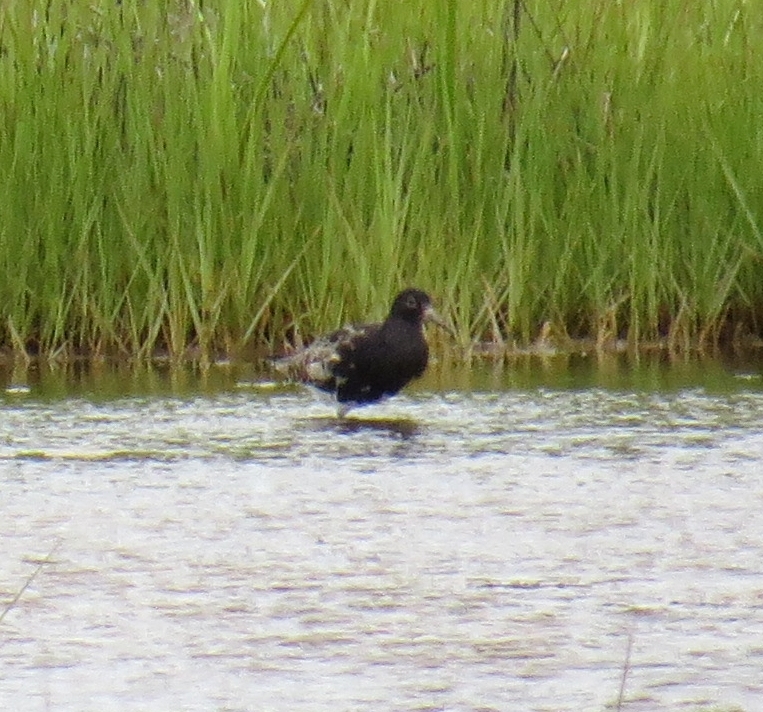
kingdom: Animalia
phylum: Chordata
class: Aves
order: Charadriiformes
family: Scolopacidae
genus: Calidris
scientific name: Calidris pugnax
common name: Ruff
